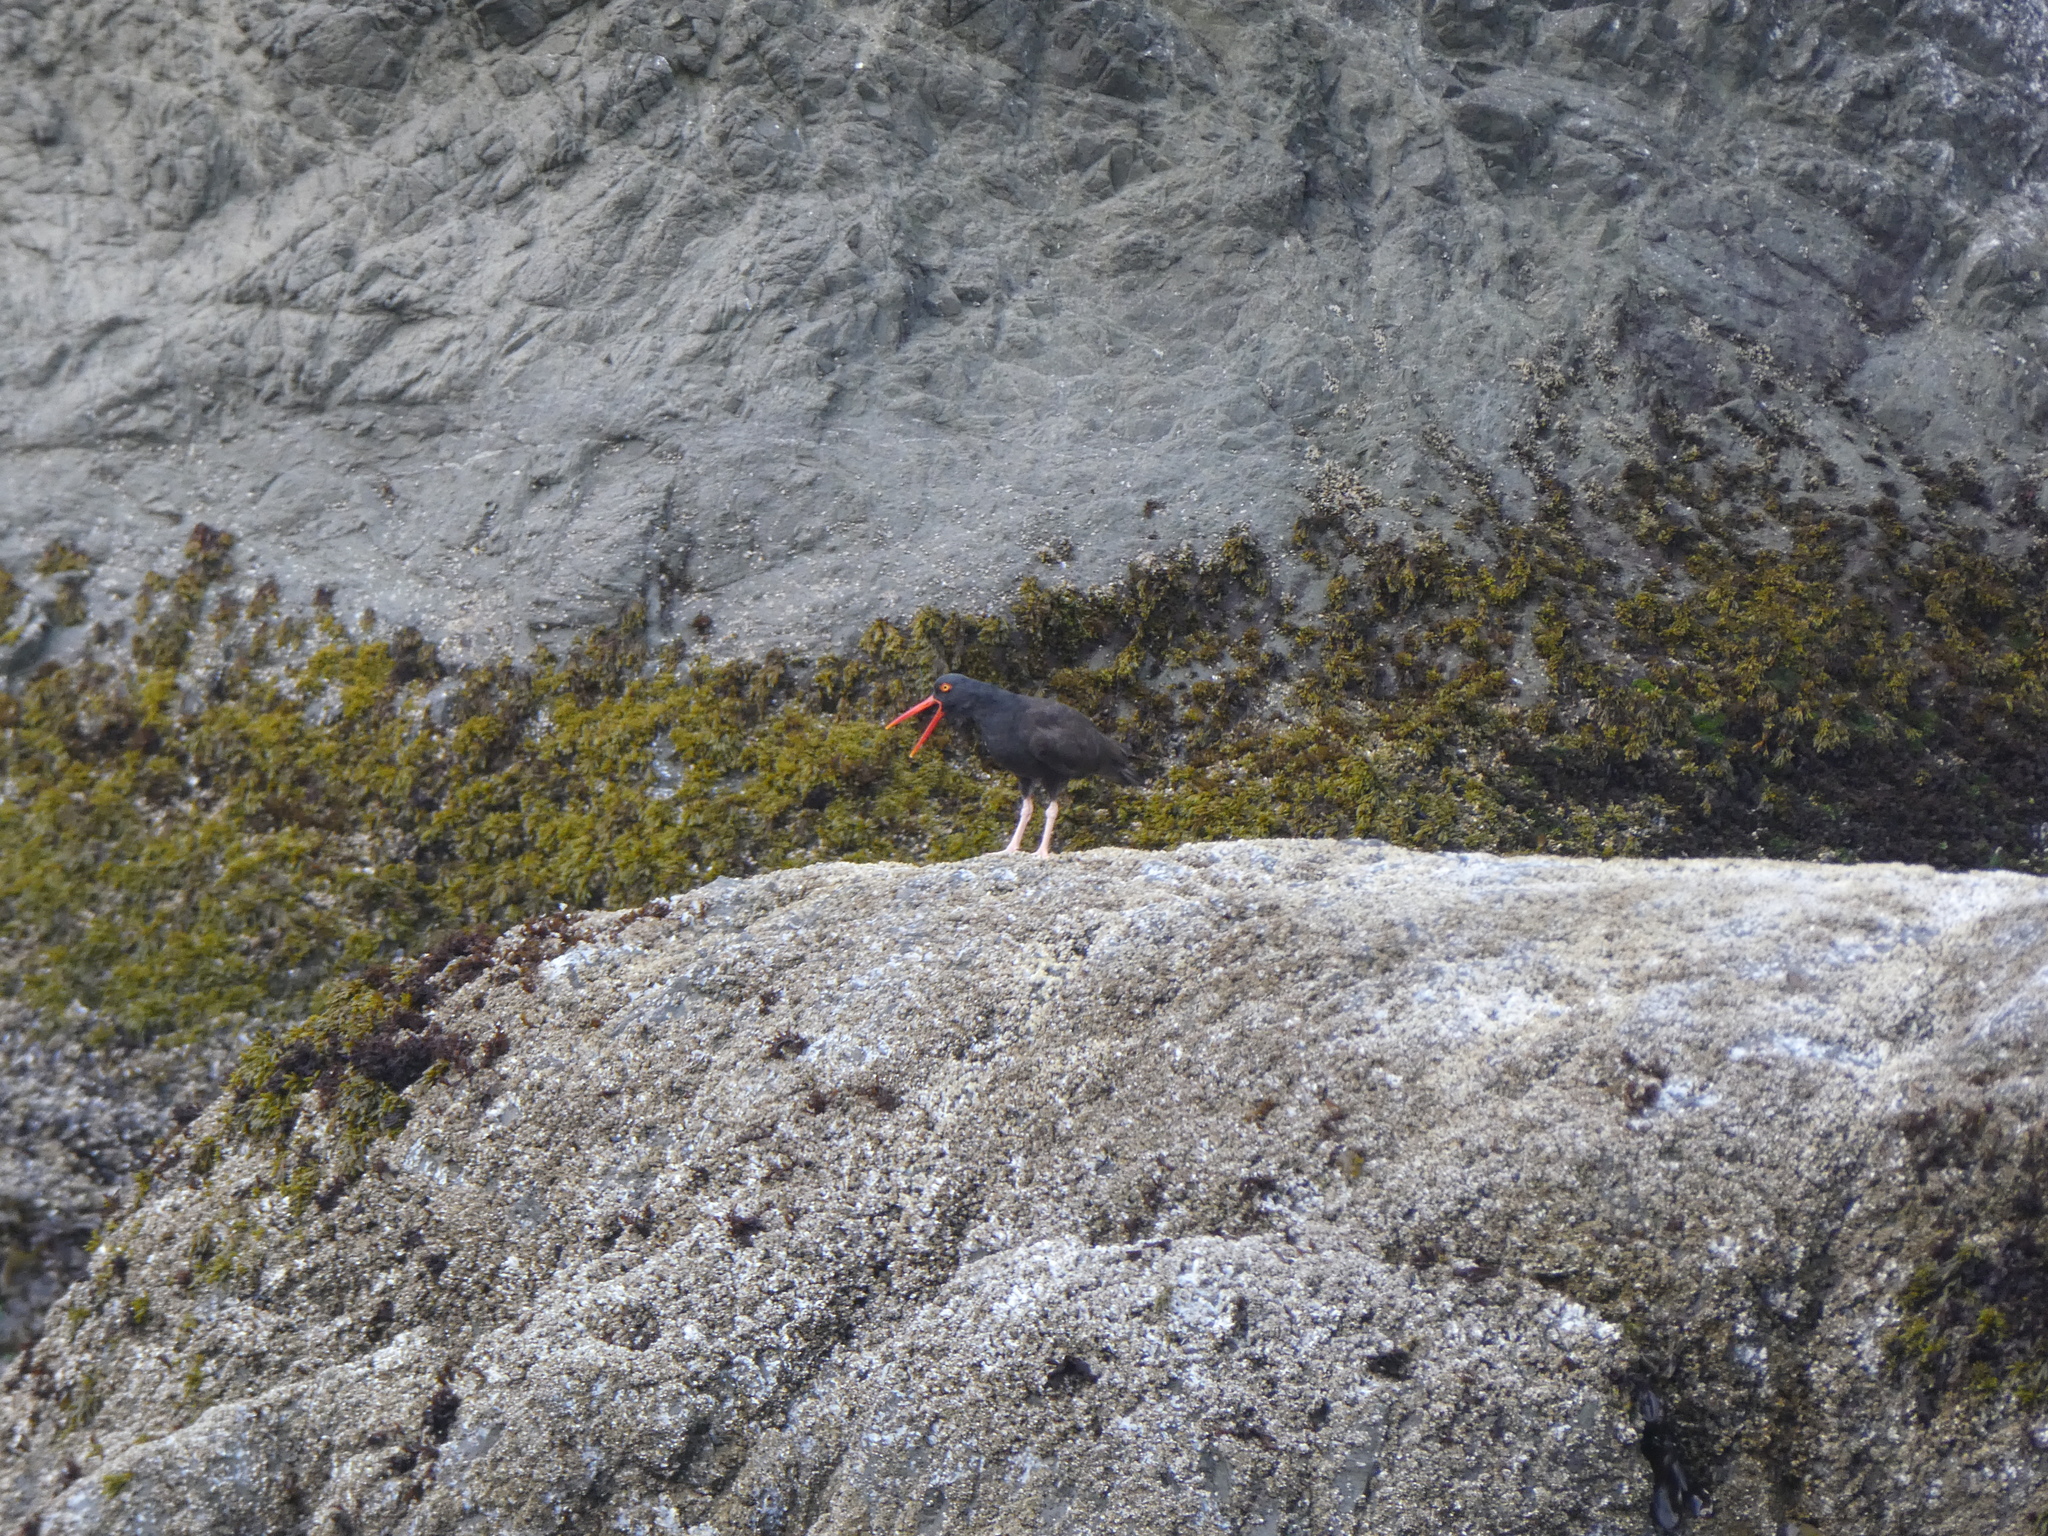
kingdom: Animalia
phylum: Chordata
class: Aves
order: Charadriiformes
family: Haematopodidae
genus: Haematopus
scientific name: Haematopus bachmani
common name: Black oystercatcher
